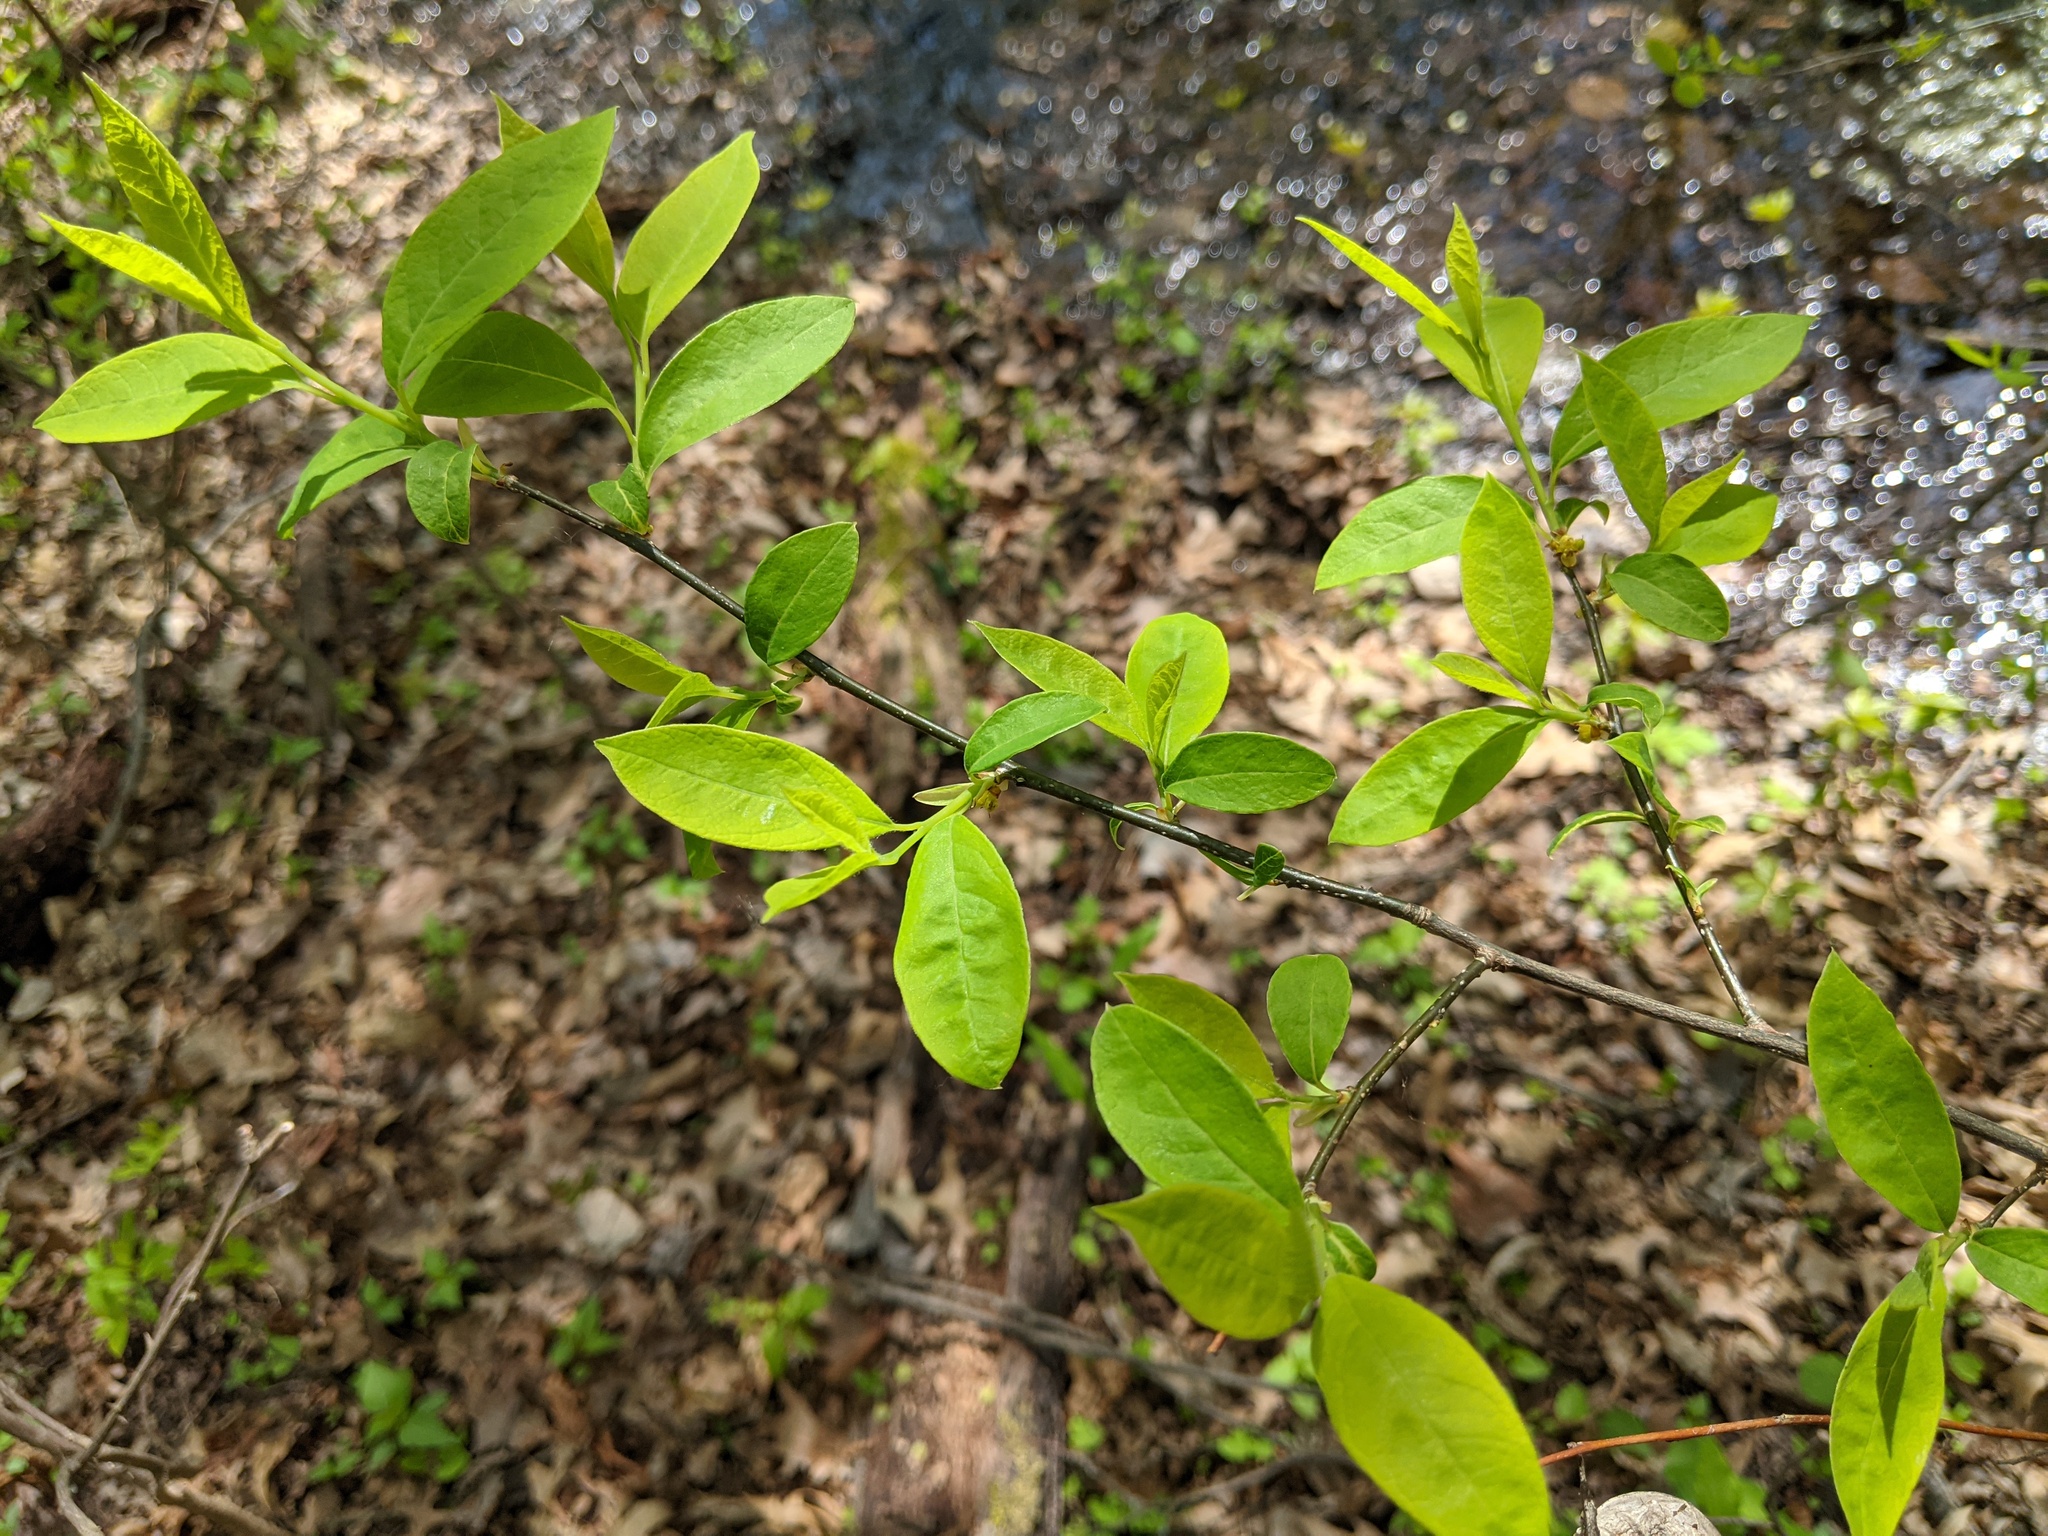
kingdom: Plantae
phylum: Tracheophyta
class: Magnoliopsida
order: Laurales
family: Lauraceae
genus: Lindera
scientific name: Lindera benzoin
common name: Spicebush
